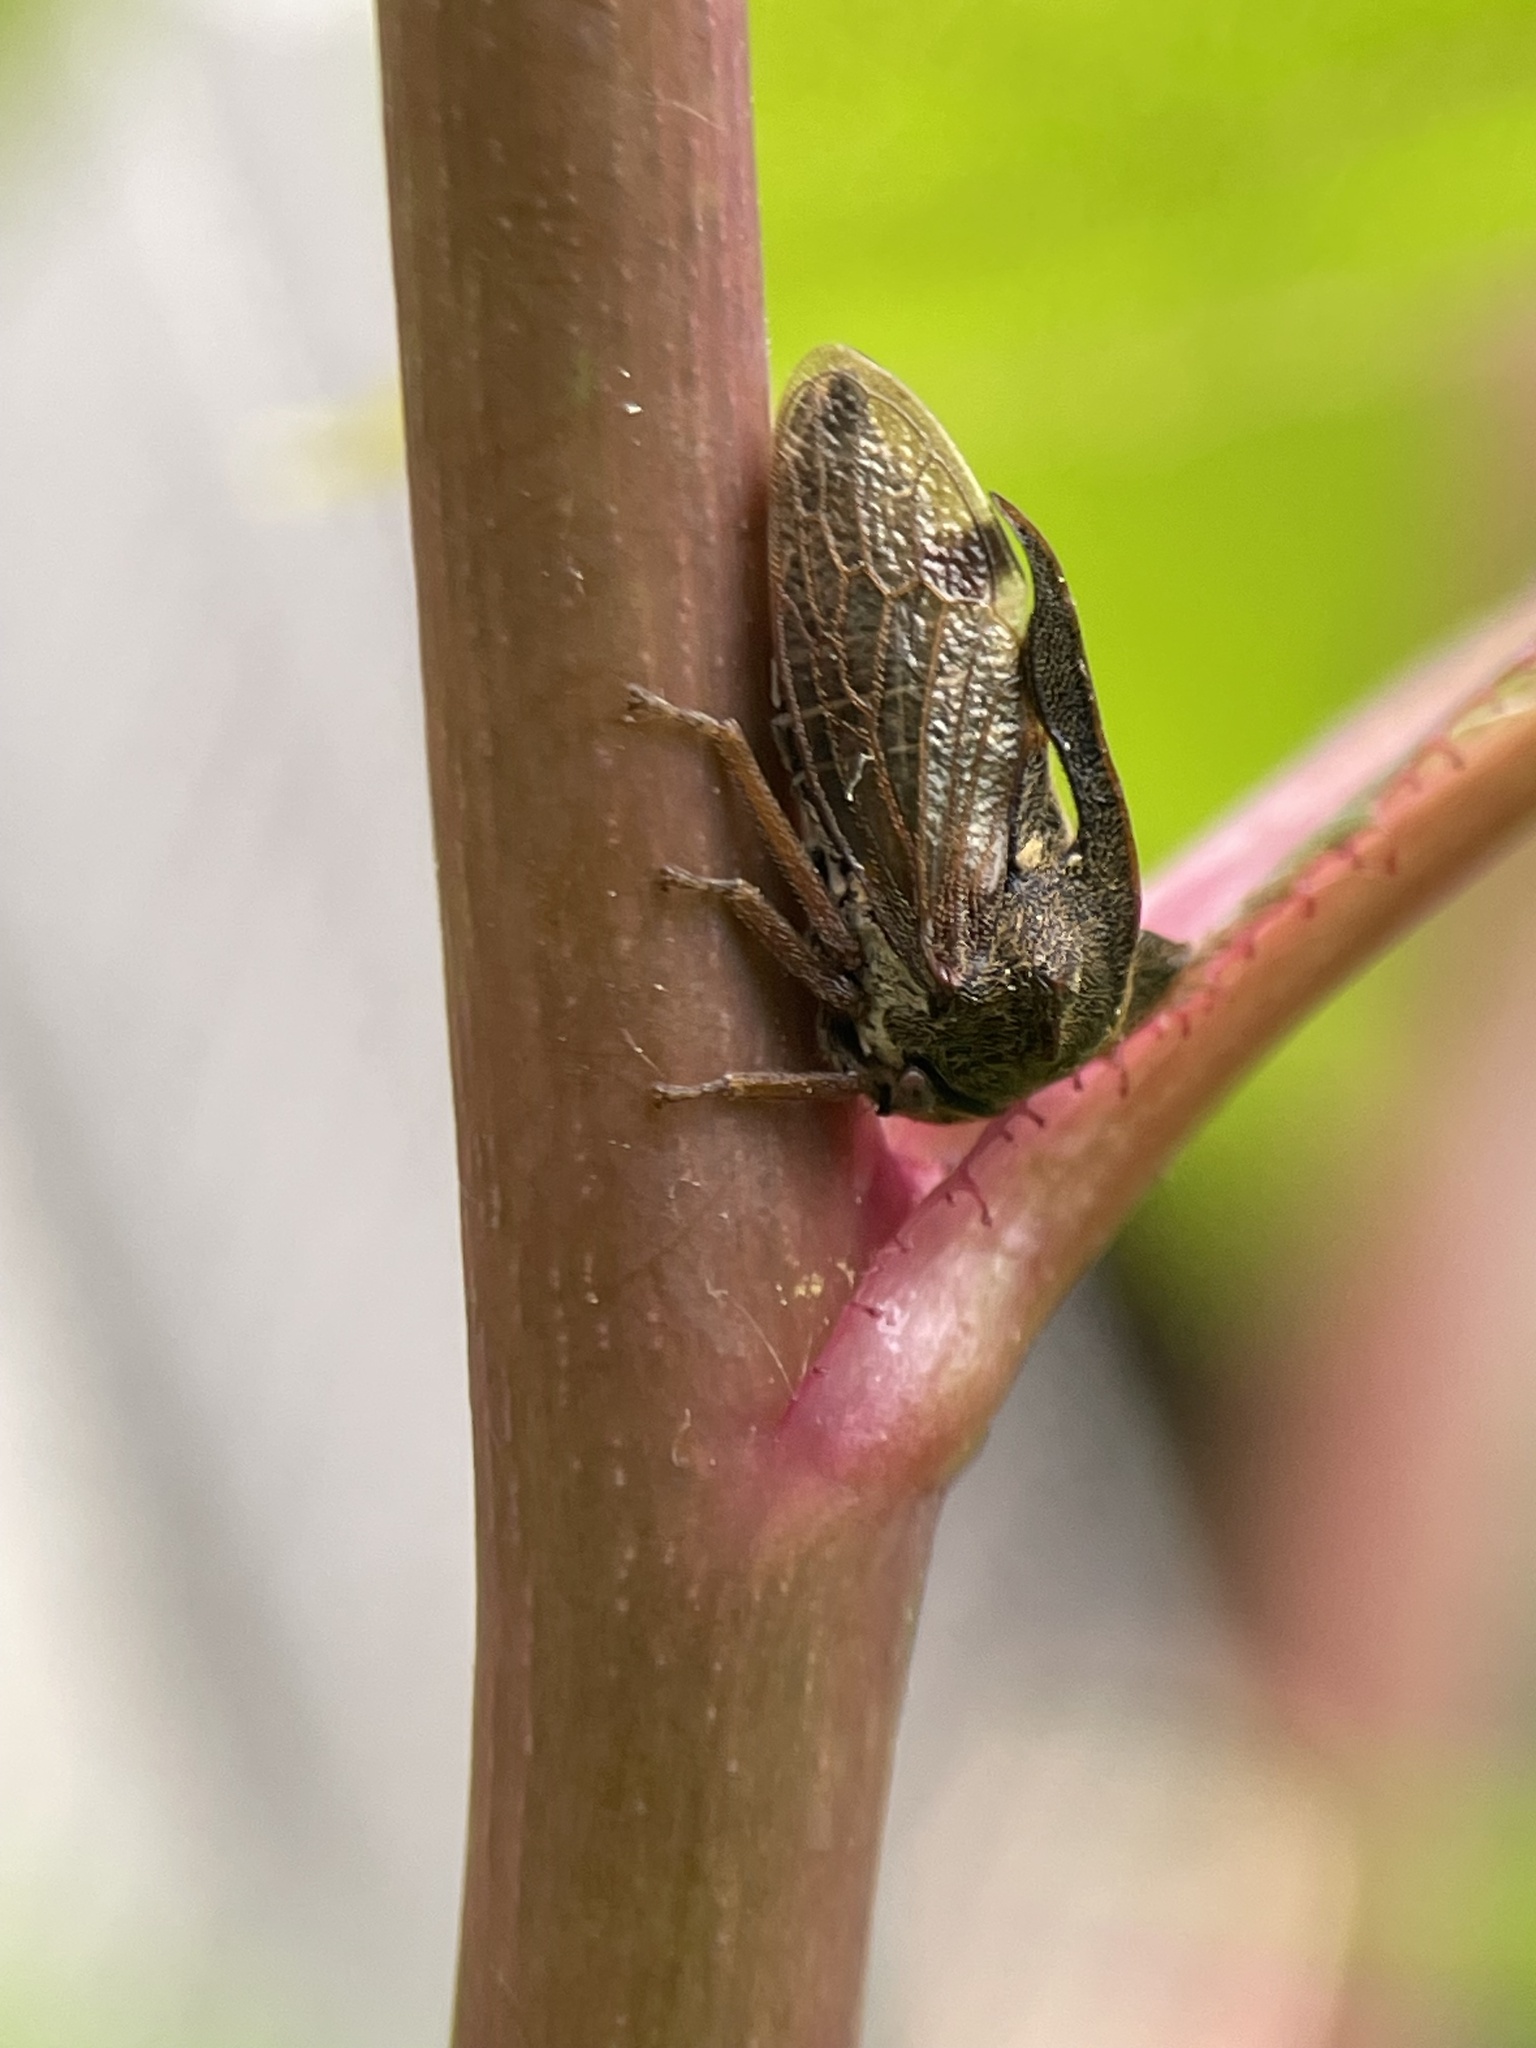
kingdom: Animalia
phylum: Arthropoda
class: Insecta
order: Hemiptera
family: Membracidae
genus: Centrotus
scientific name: Centrotus cornuta
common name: Treehopper
